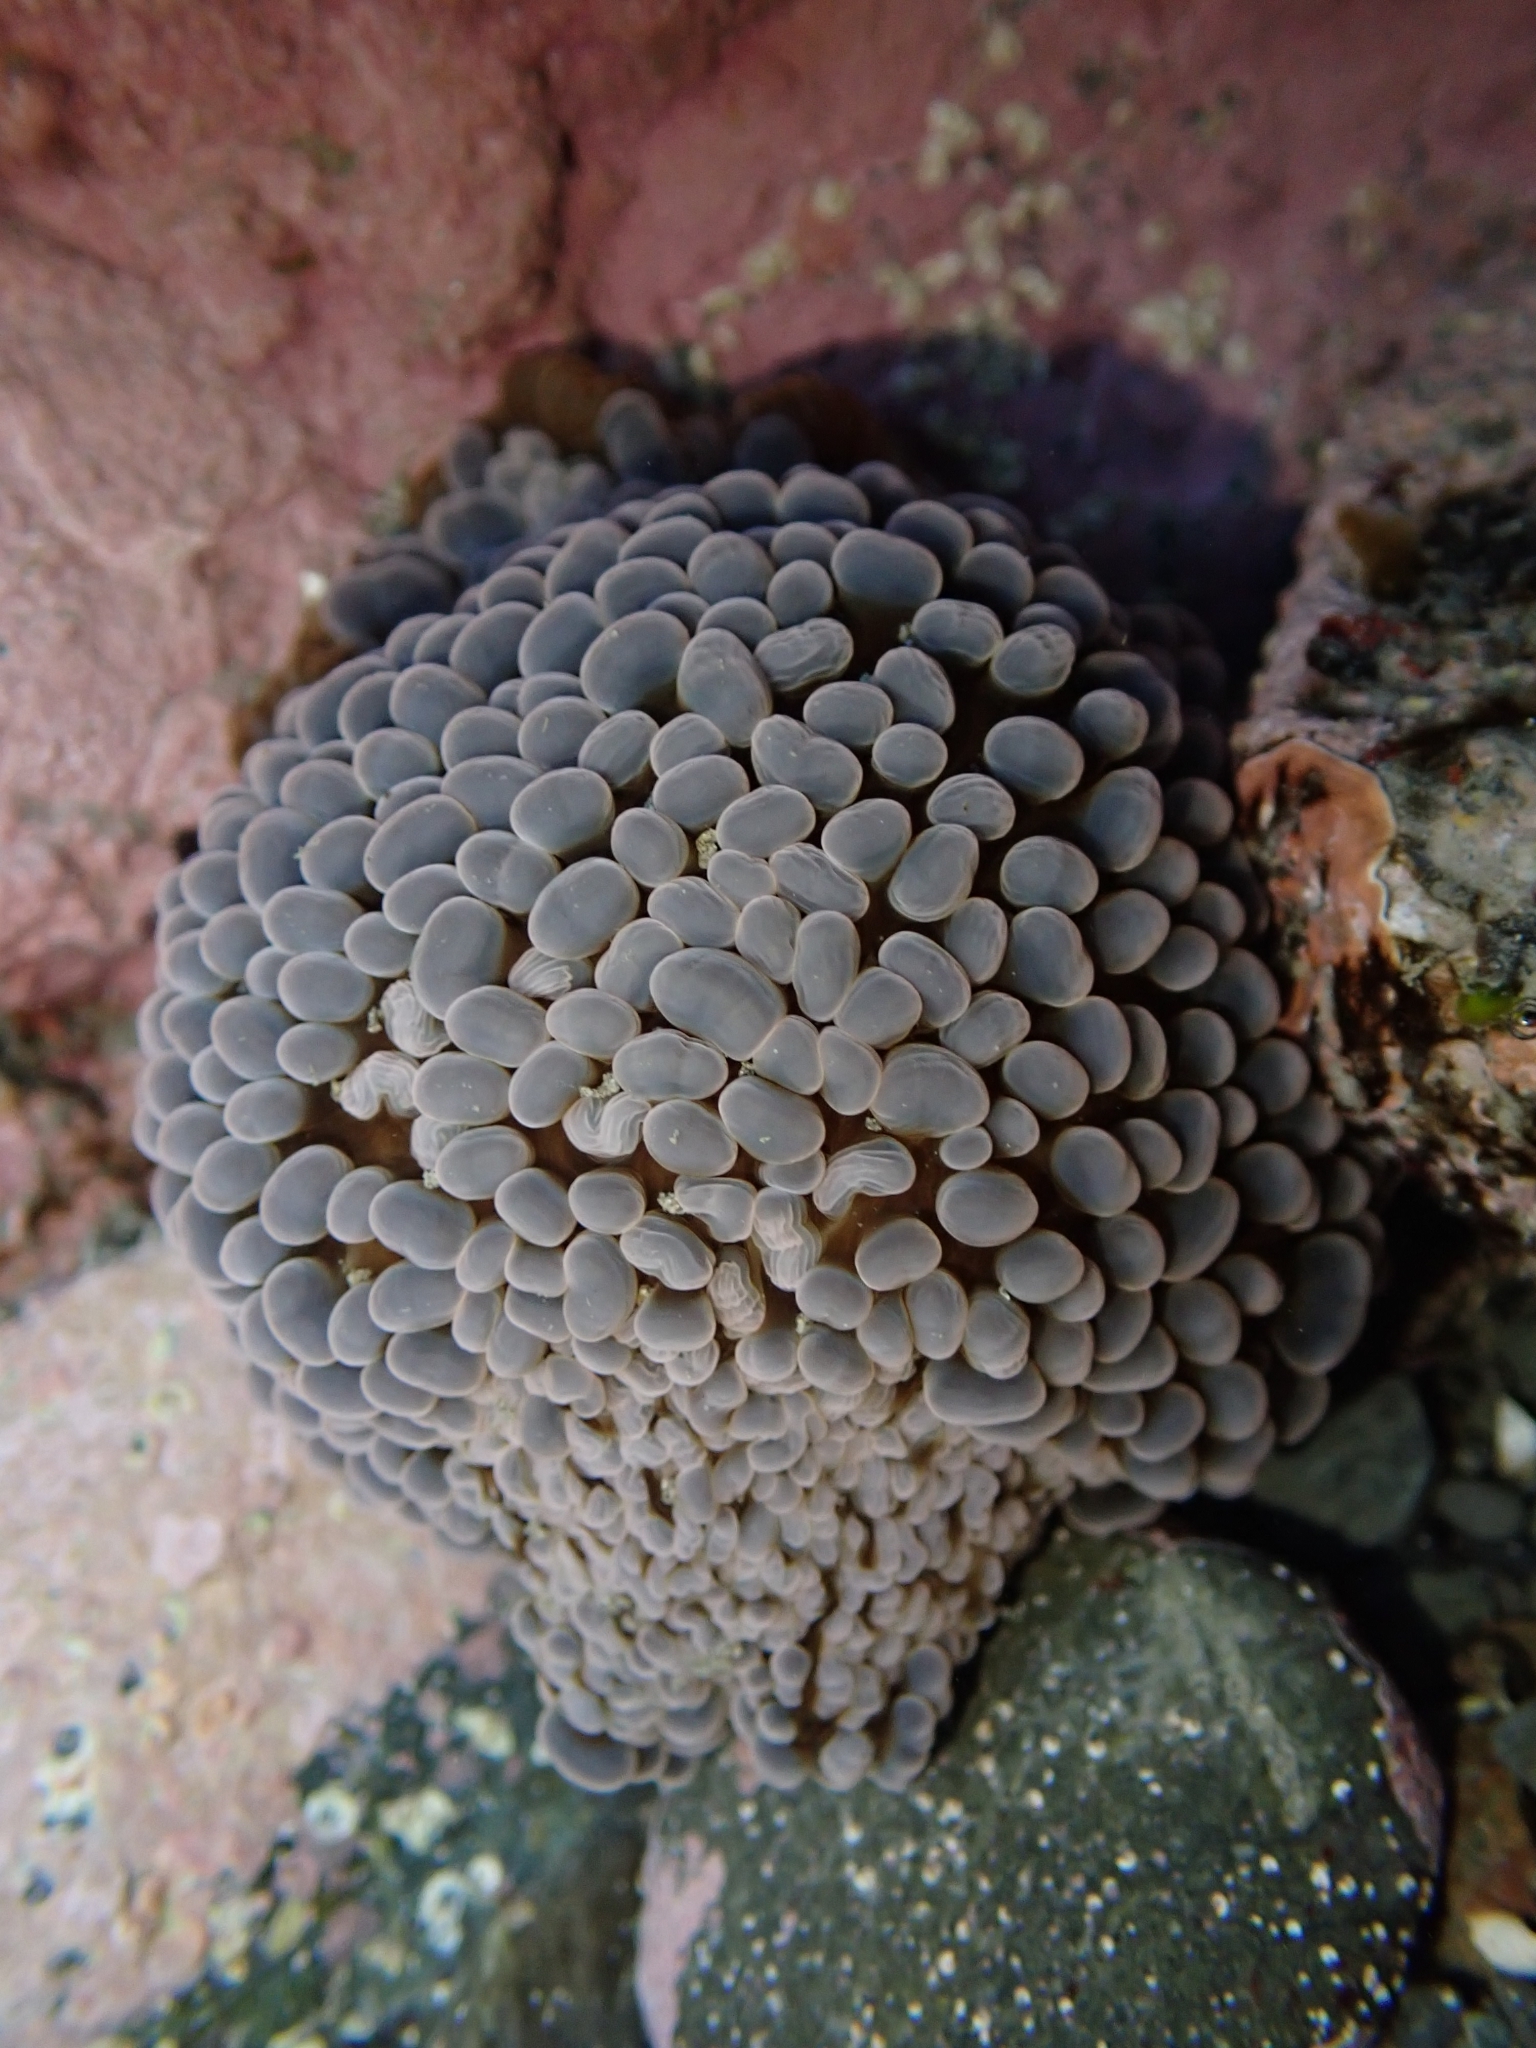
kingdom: Animalia
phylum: Cnidaria
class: Anthozoa
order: Actiniaria
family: Actiniidae
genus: Phlyctenactis
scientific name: Phlyctenactis tuberculosa
